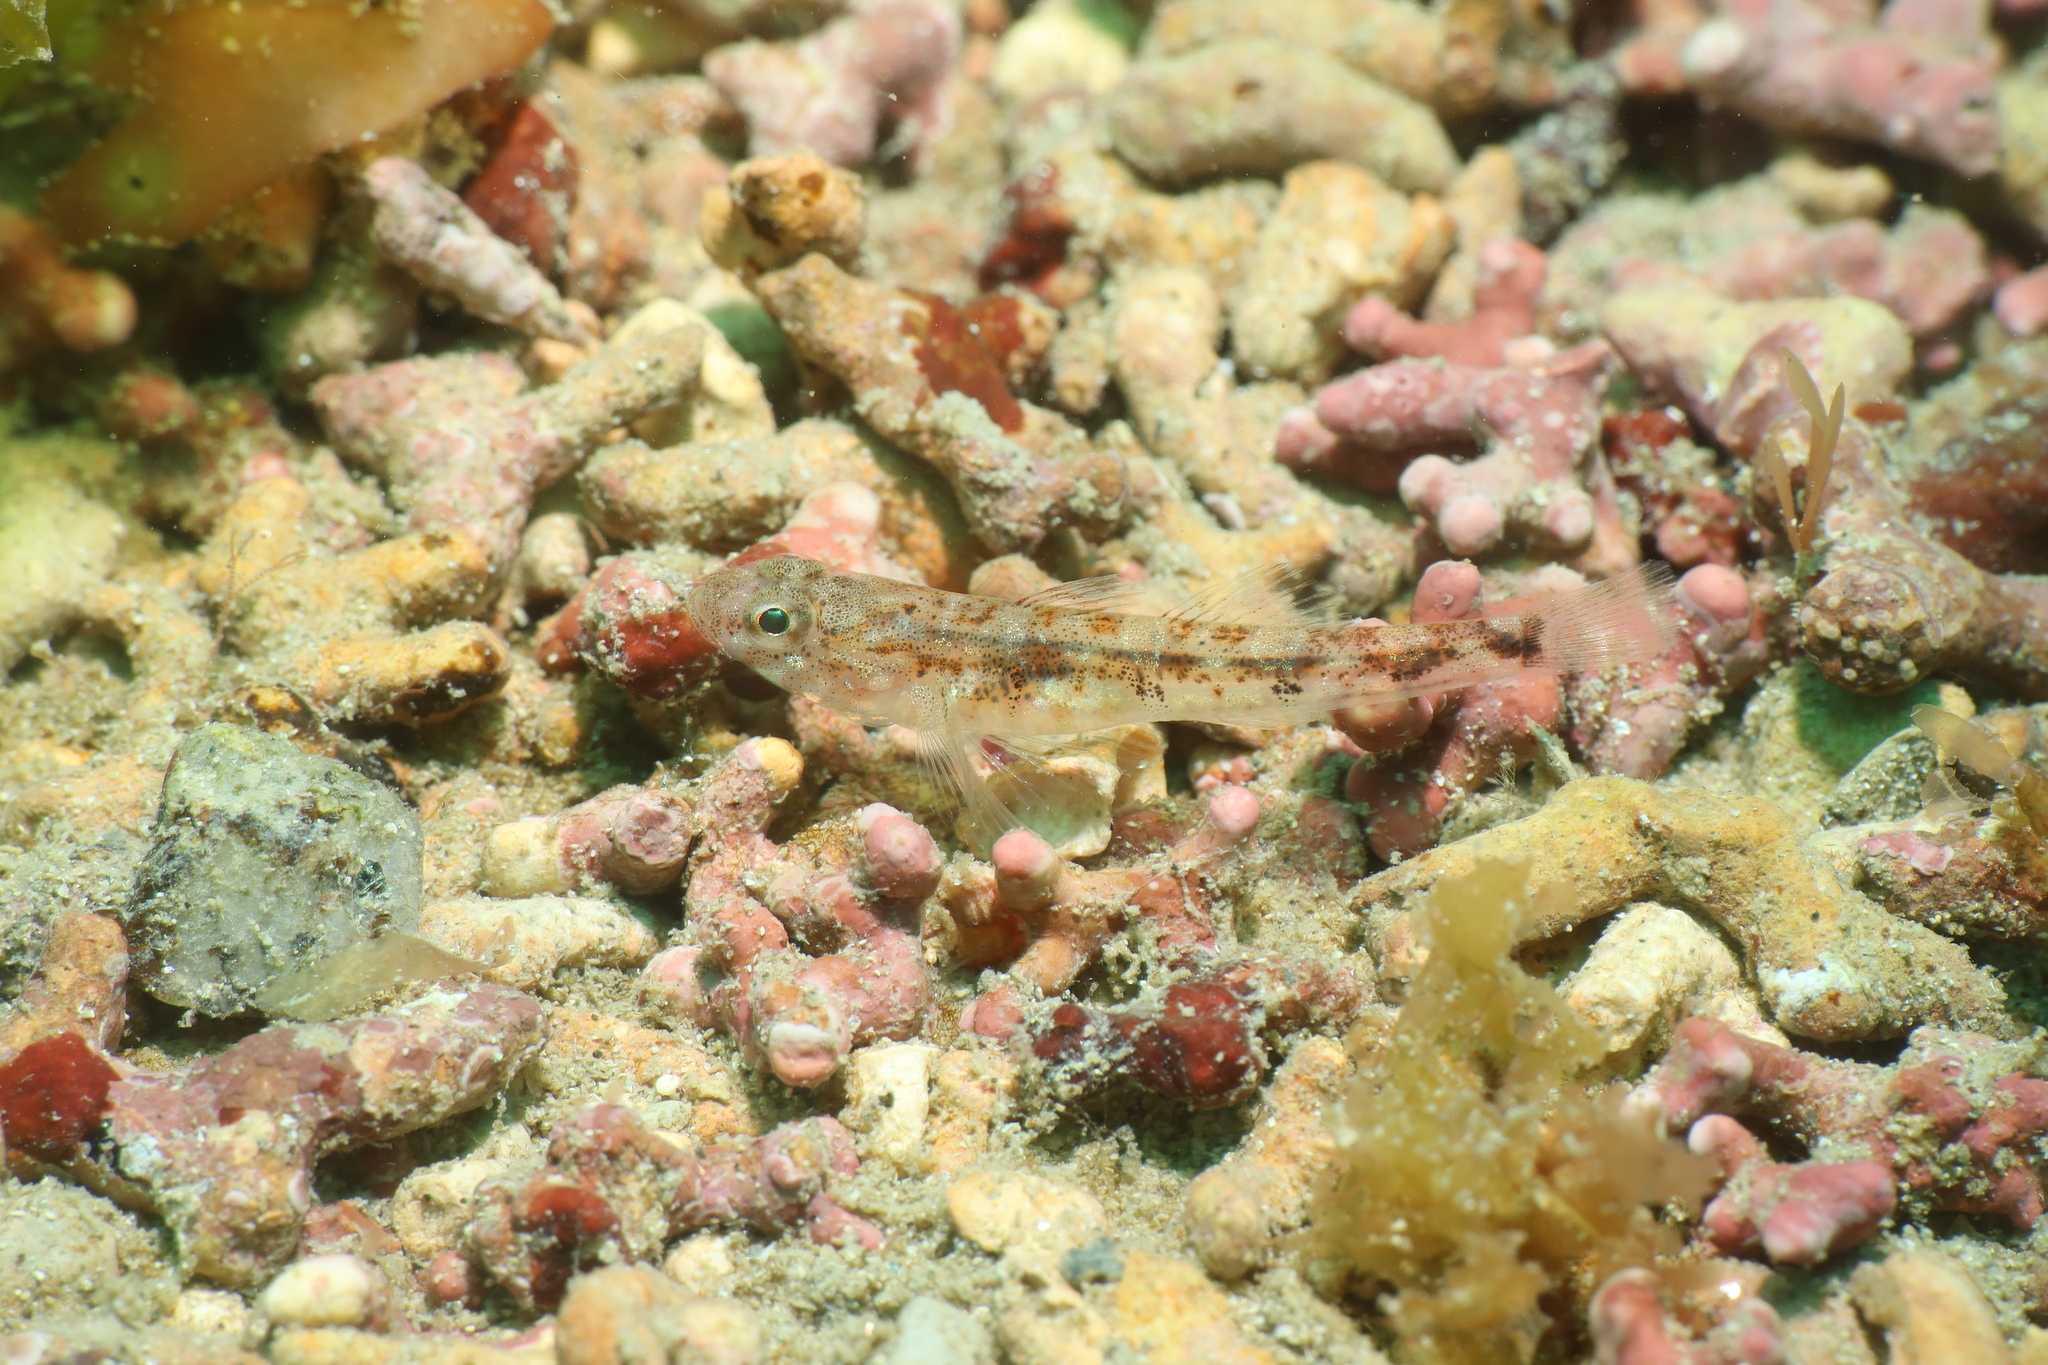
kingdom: Animalia
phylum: Chordata
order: Perciformes
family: Gobiidae
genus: Pomatoschistus
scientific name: Pomatoschistus pictus
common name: Painted goby
